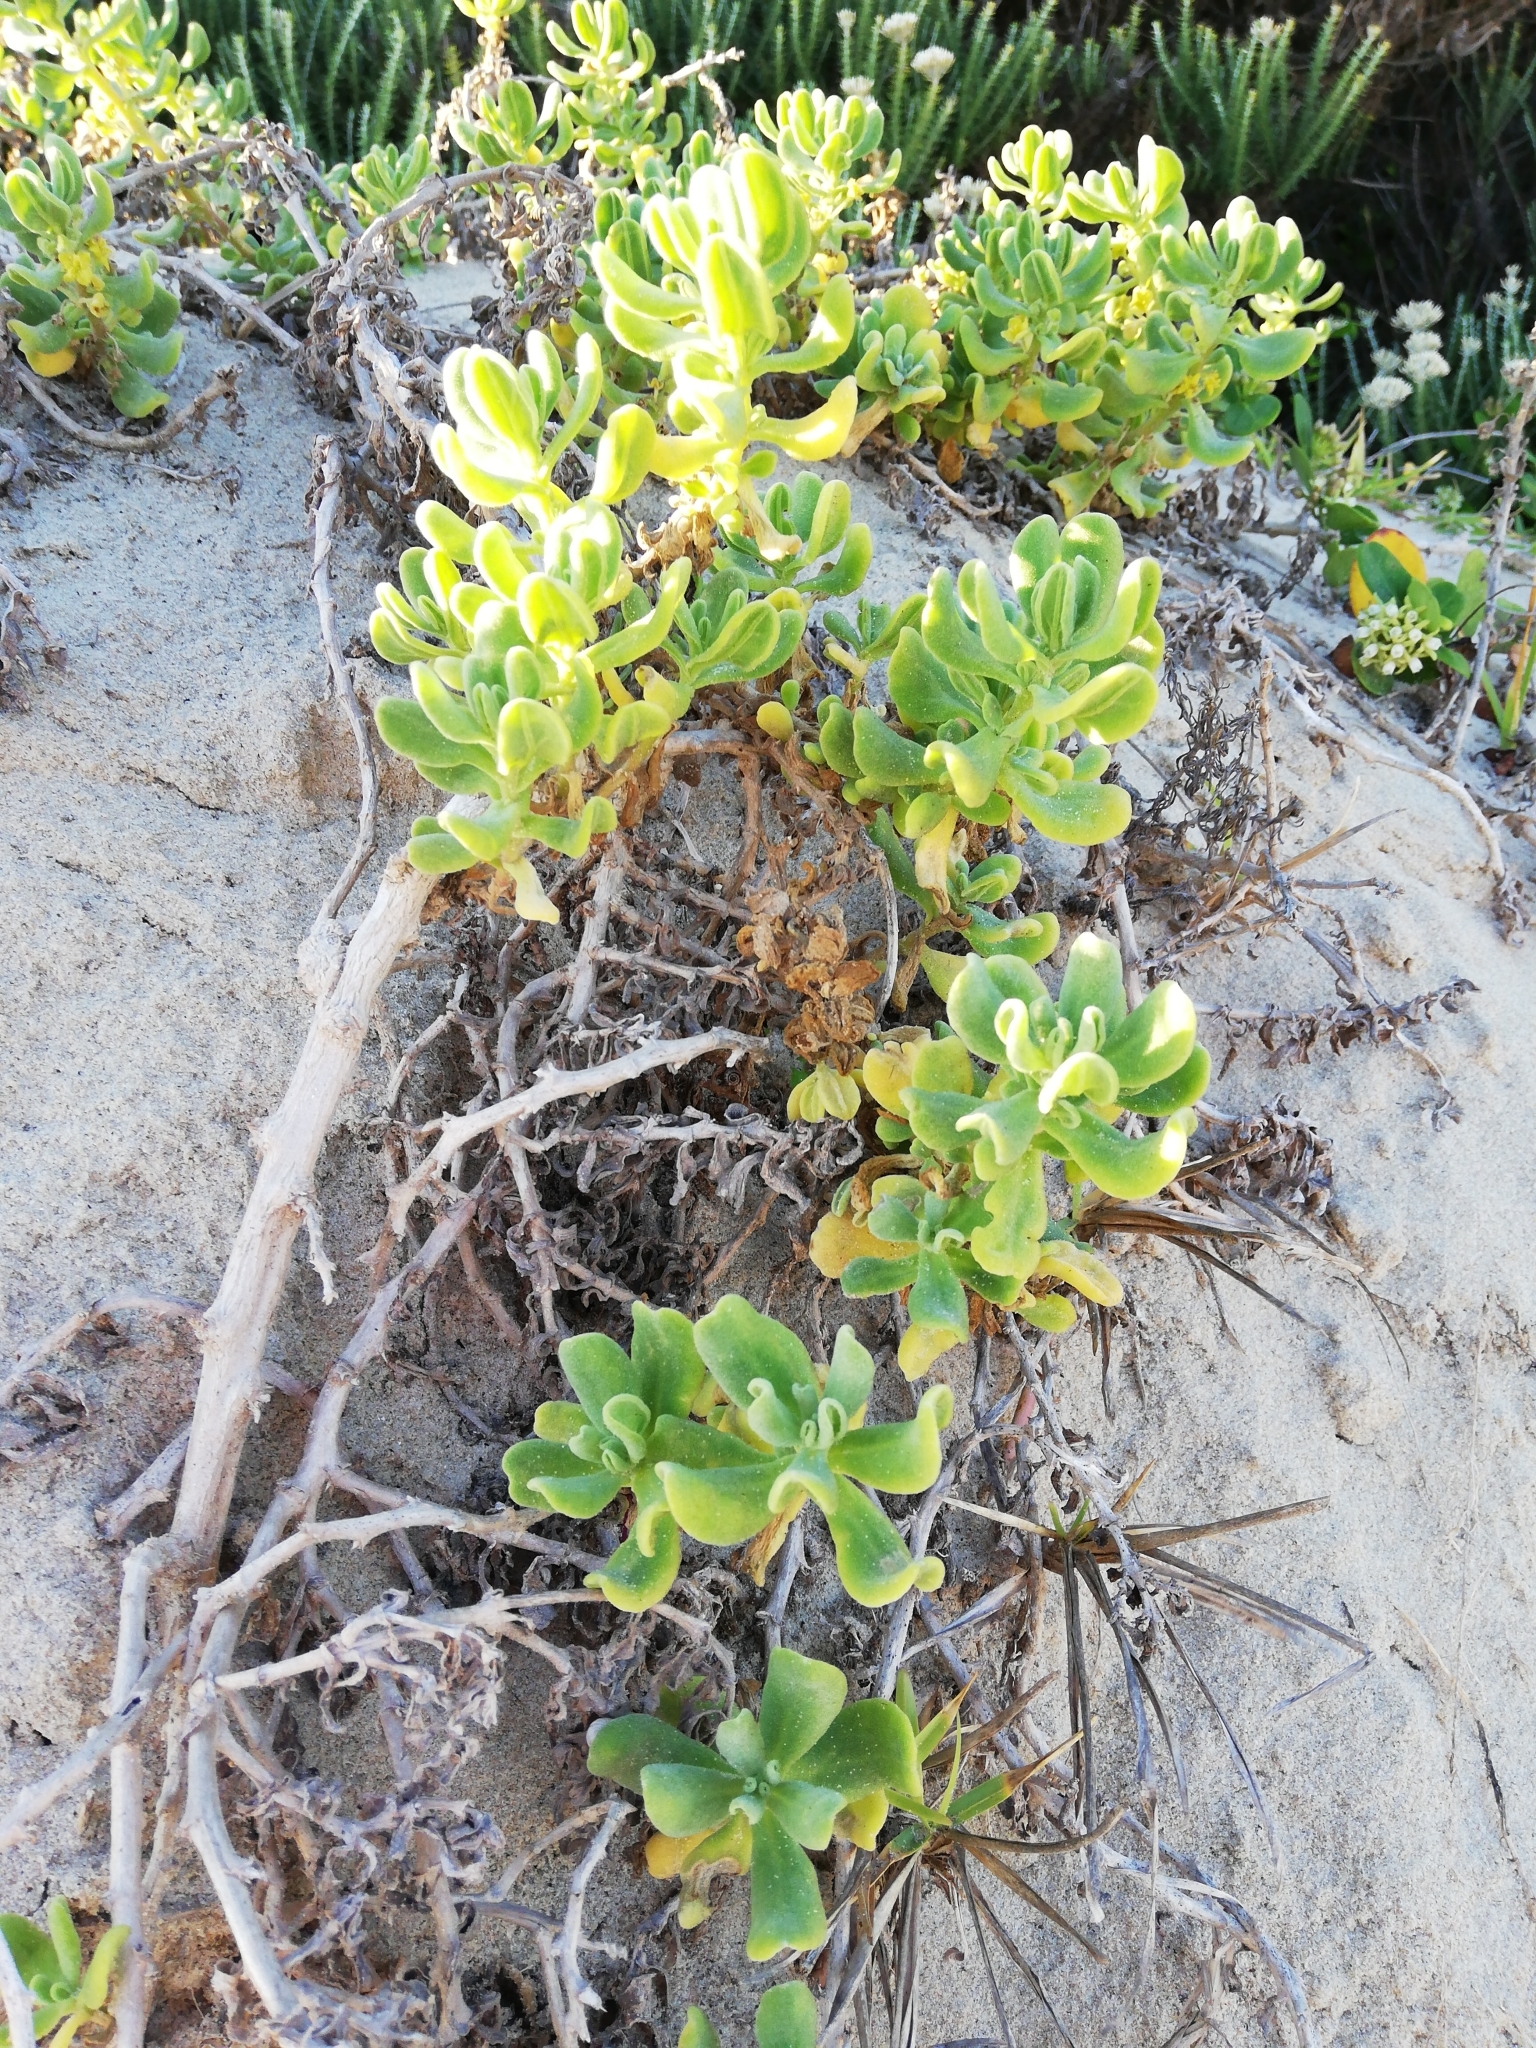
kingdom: Plantae
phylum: Tracheophyta
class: Magnoliopsida
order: Caryophyllales
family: Aizoaceae
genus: Tetragonia
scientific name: Tetragonia decumbens
